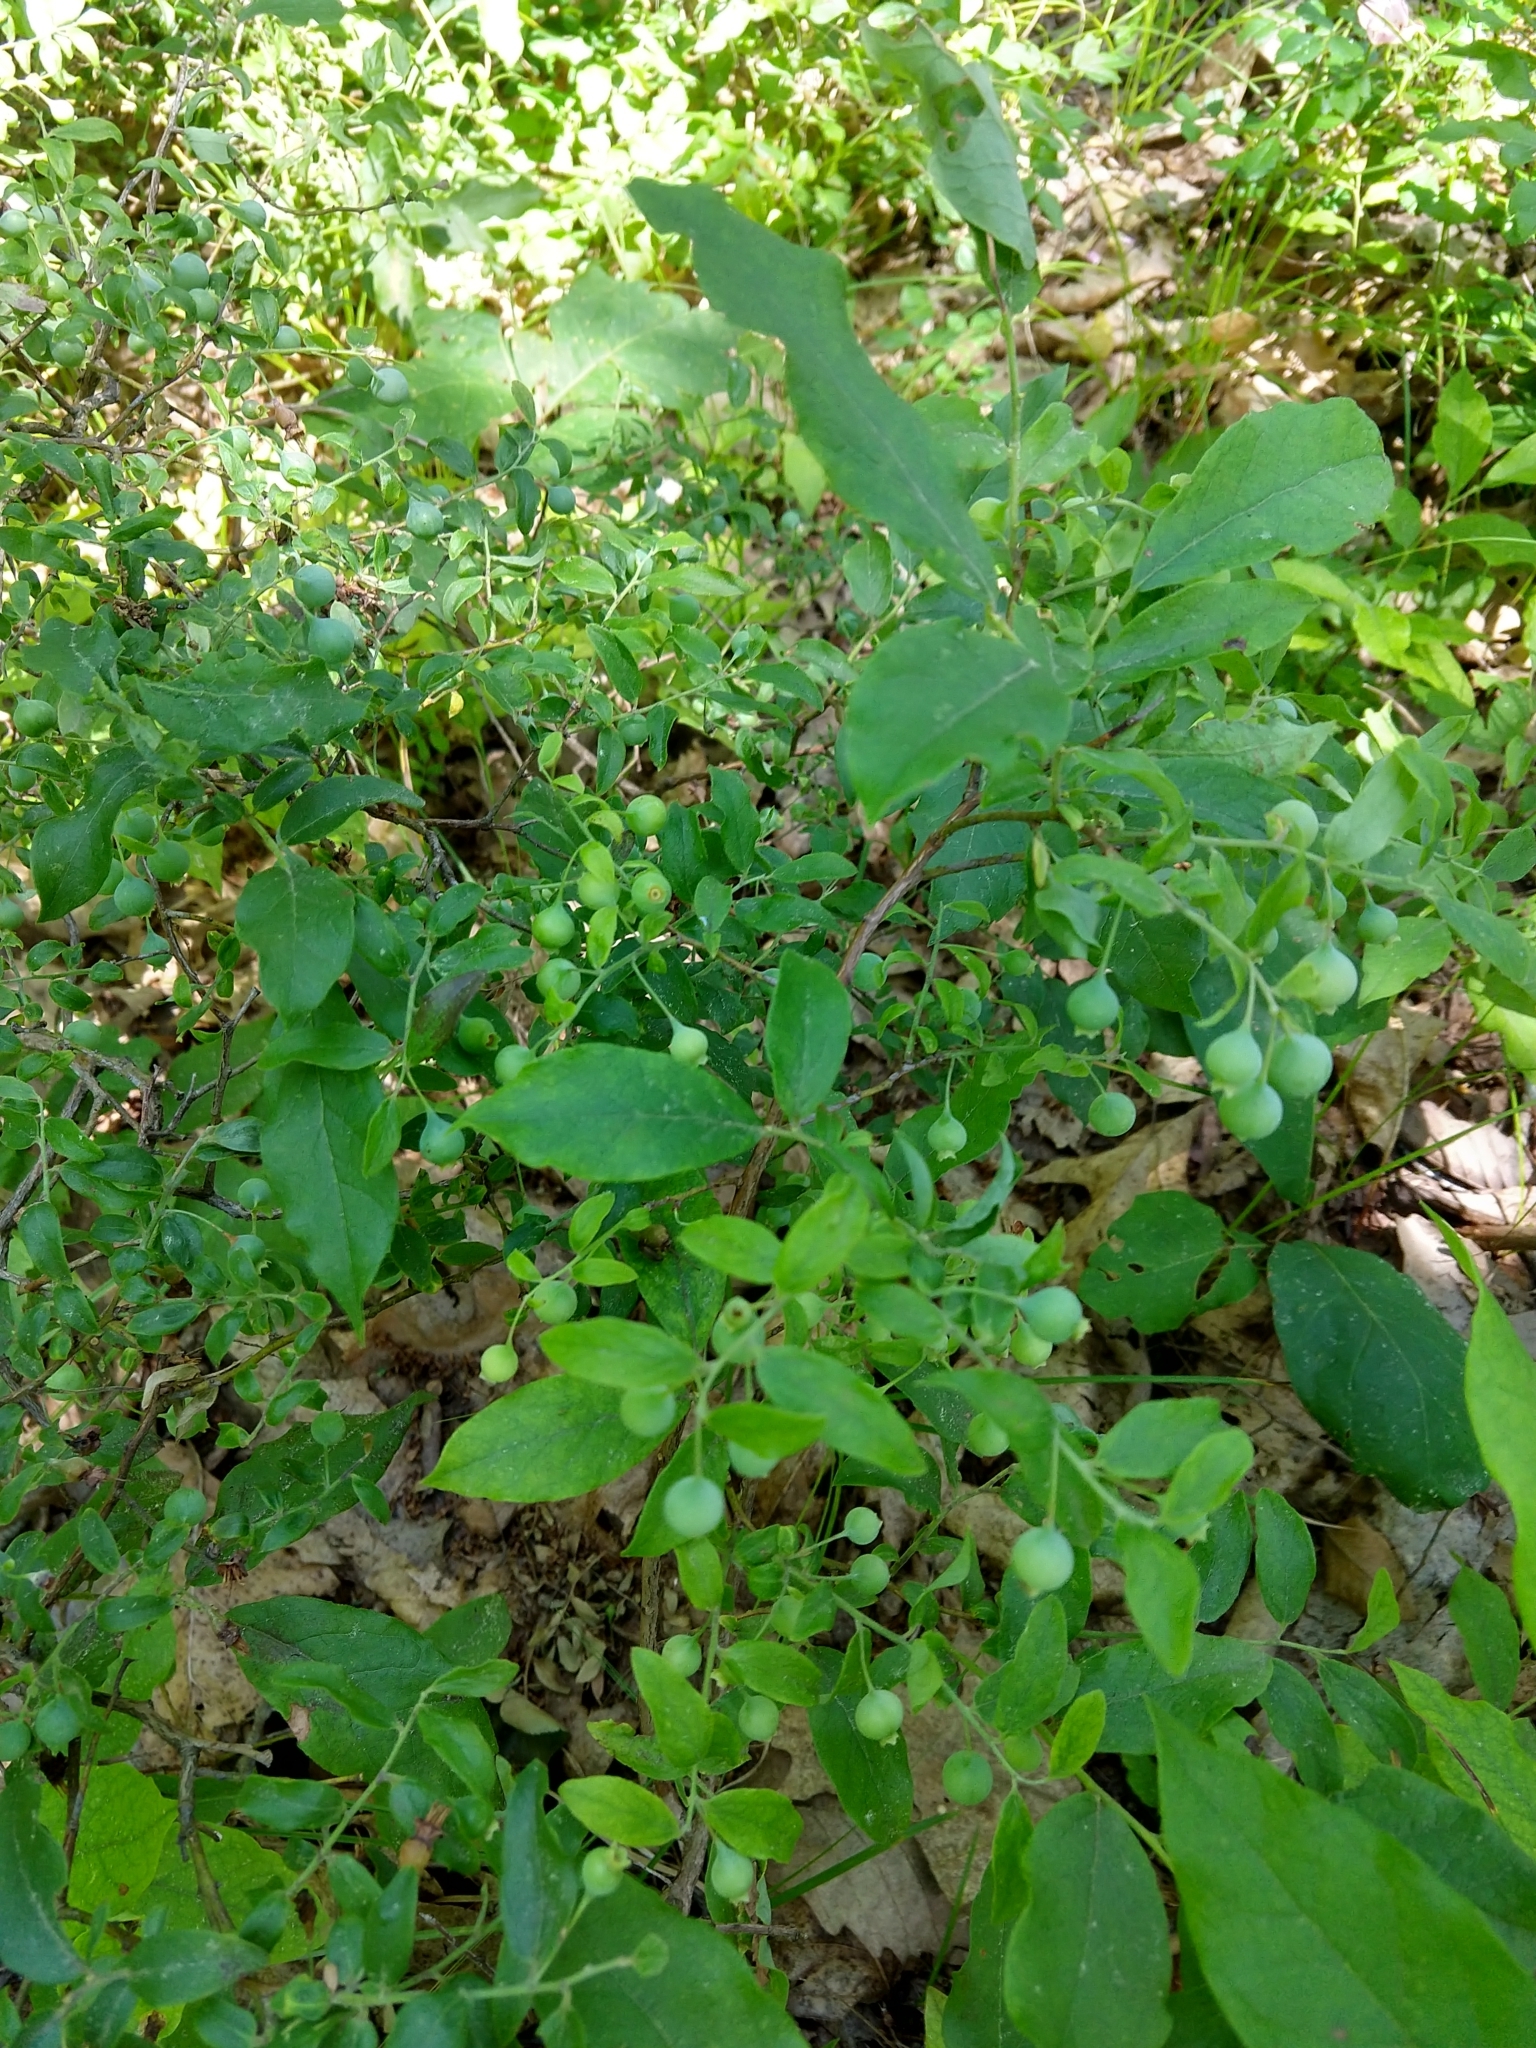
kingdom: Plantae
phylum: Tracheophyta
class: Magnoliopsida
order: Ericales
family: Ericaceae
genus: Vaccinium
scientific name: Vaccinium stamineum
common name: Deerberry
